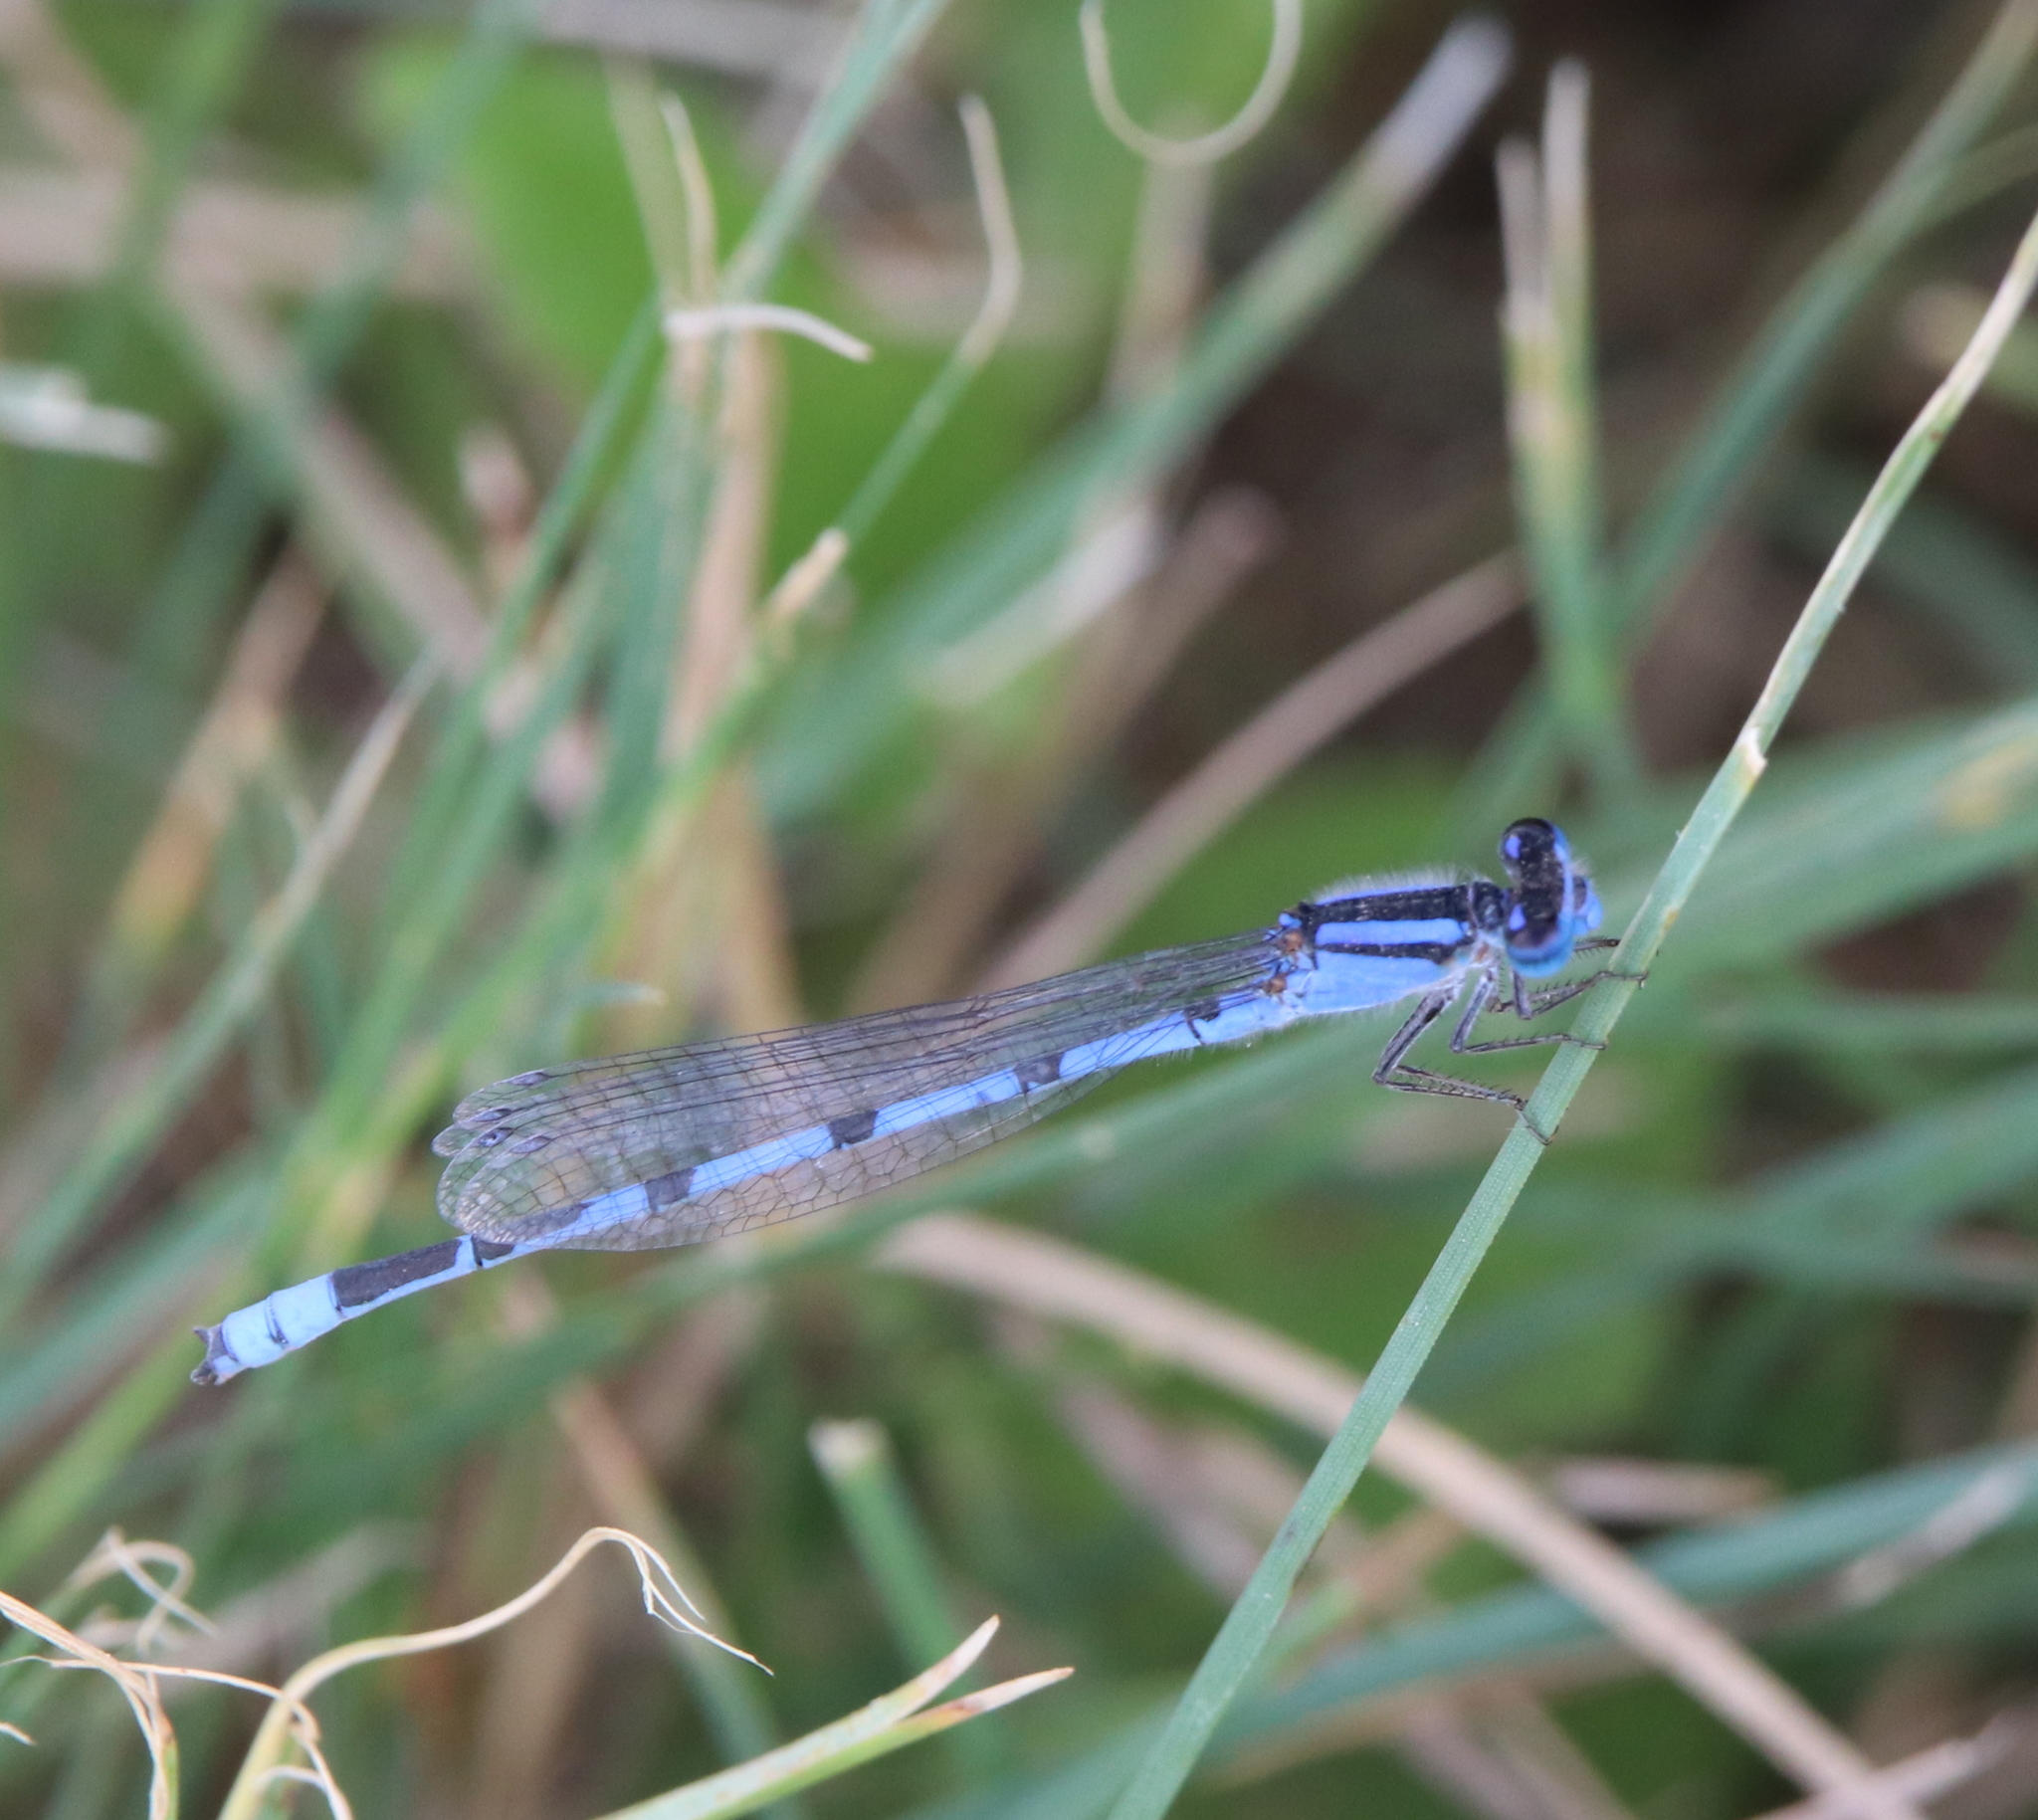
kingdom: Animalia
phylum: Arthropoda
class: Insecta
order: Odonata
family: Coenagrionidae
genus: Enallagma
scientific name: Enallagma civile
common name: Damselfly
